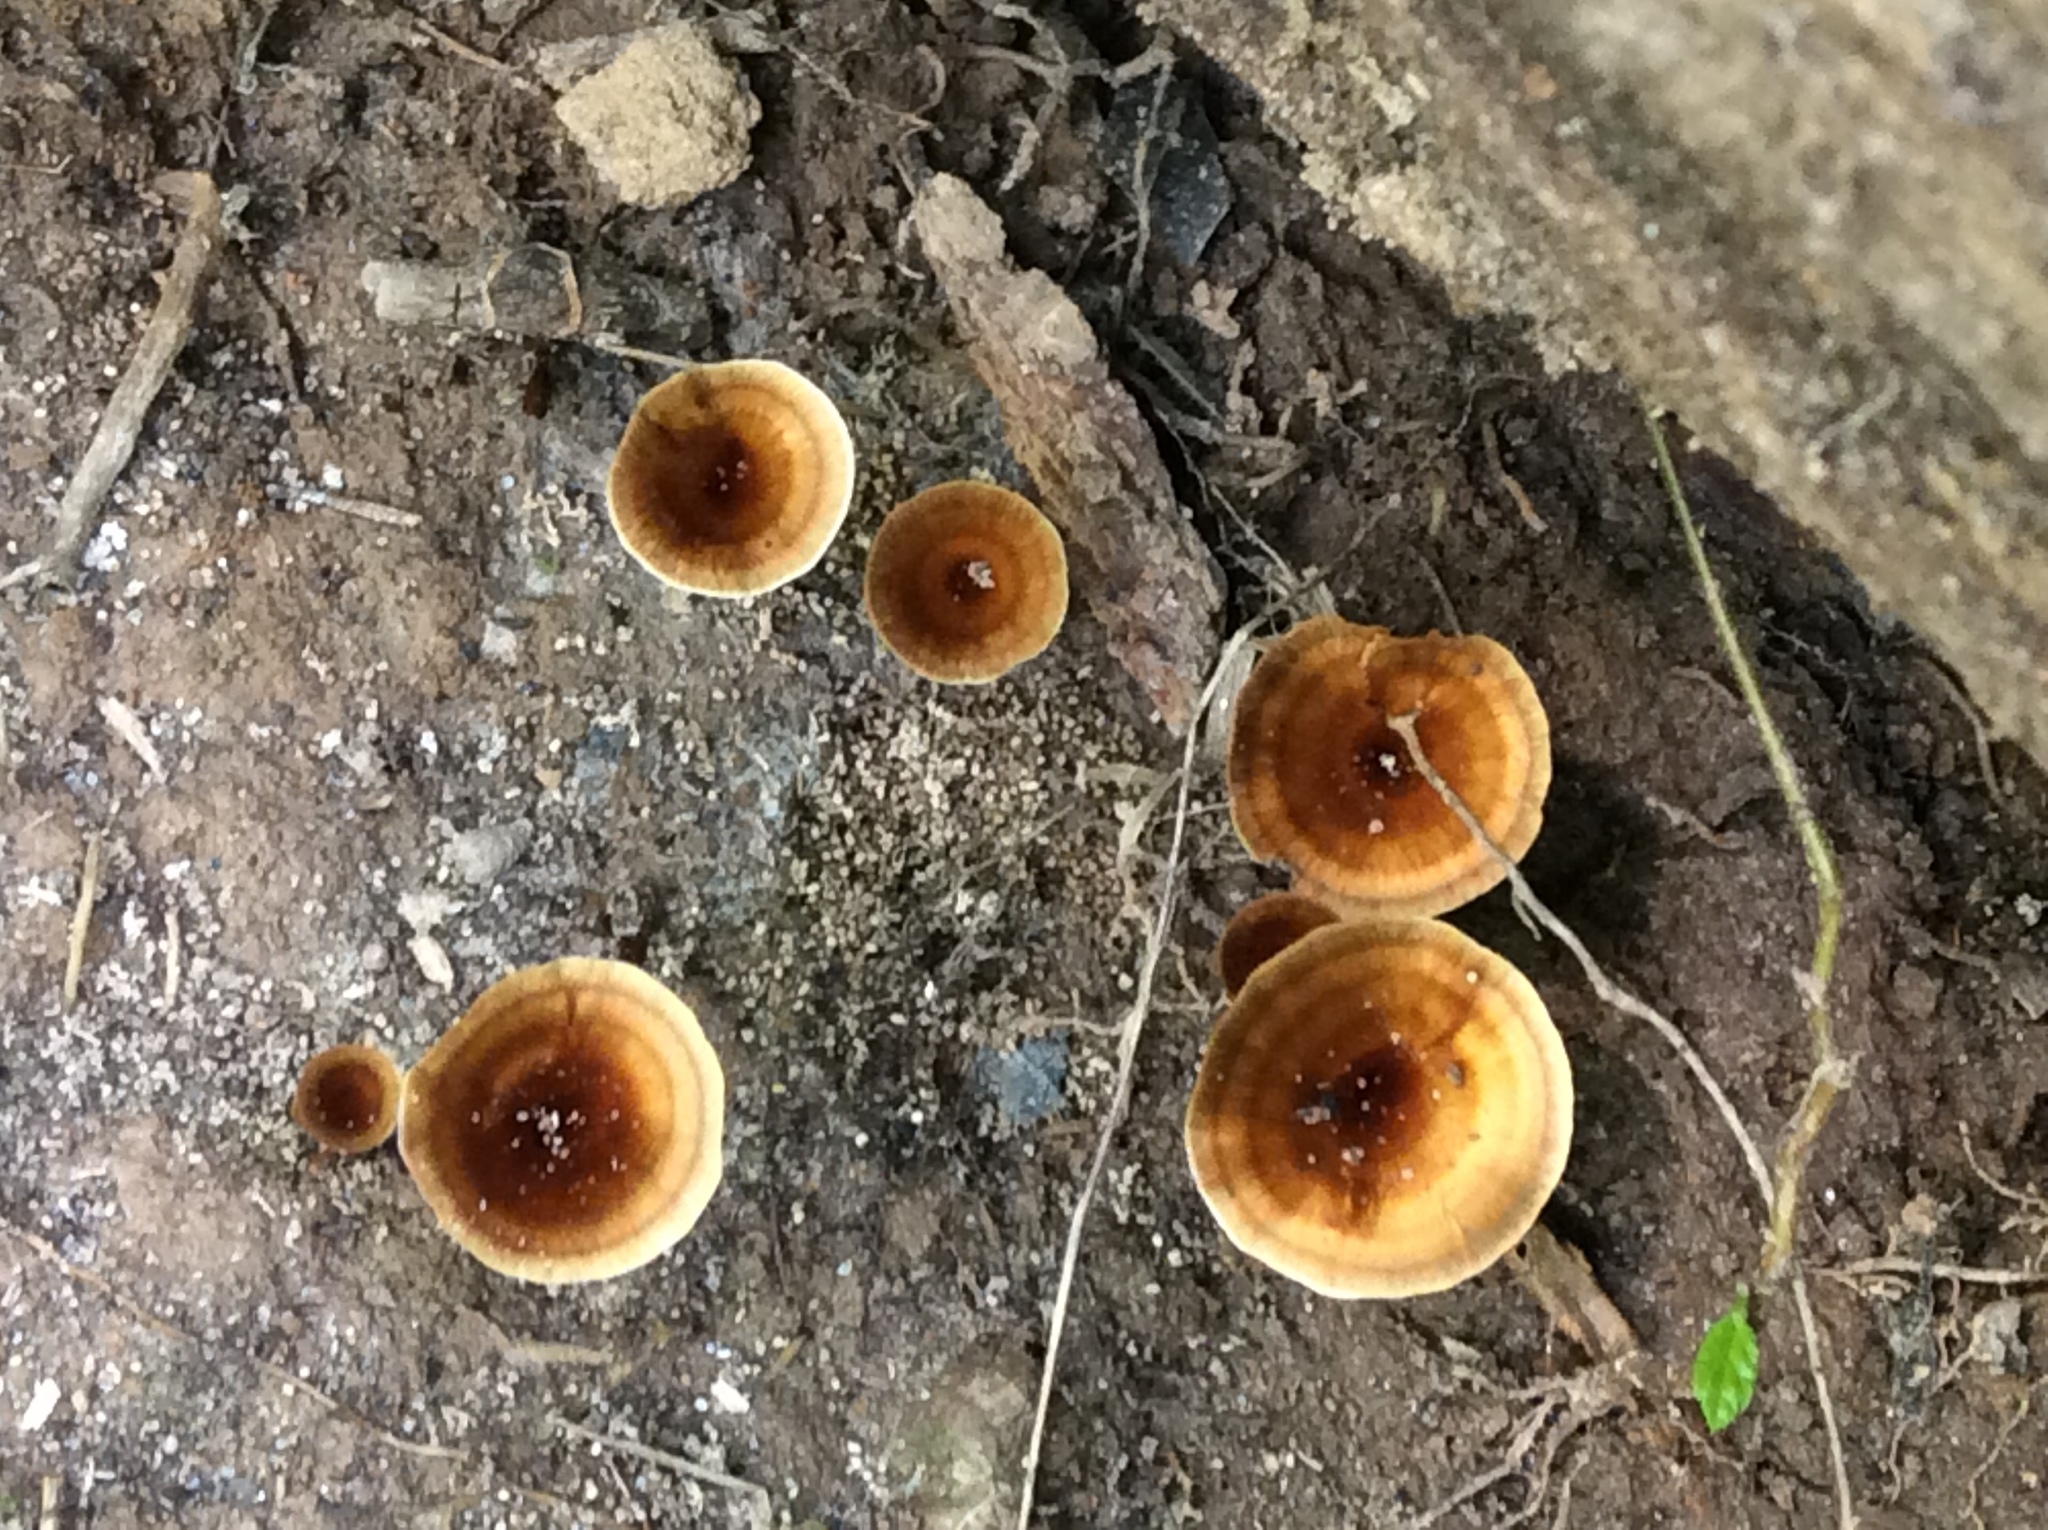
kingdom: Fungi
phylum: Basidiomycota
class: Agaricomycetes
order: Hymenochaetales
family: Hymenochaetaceae
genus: Coltricia
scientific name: Coltricia cinnamomea
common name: Shiny cinnamon polypore
